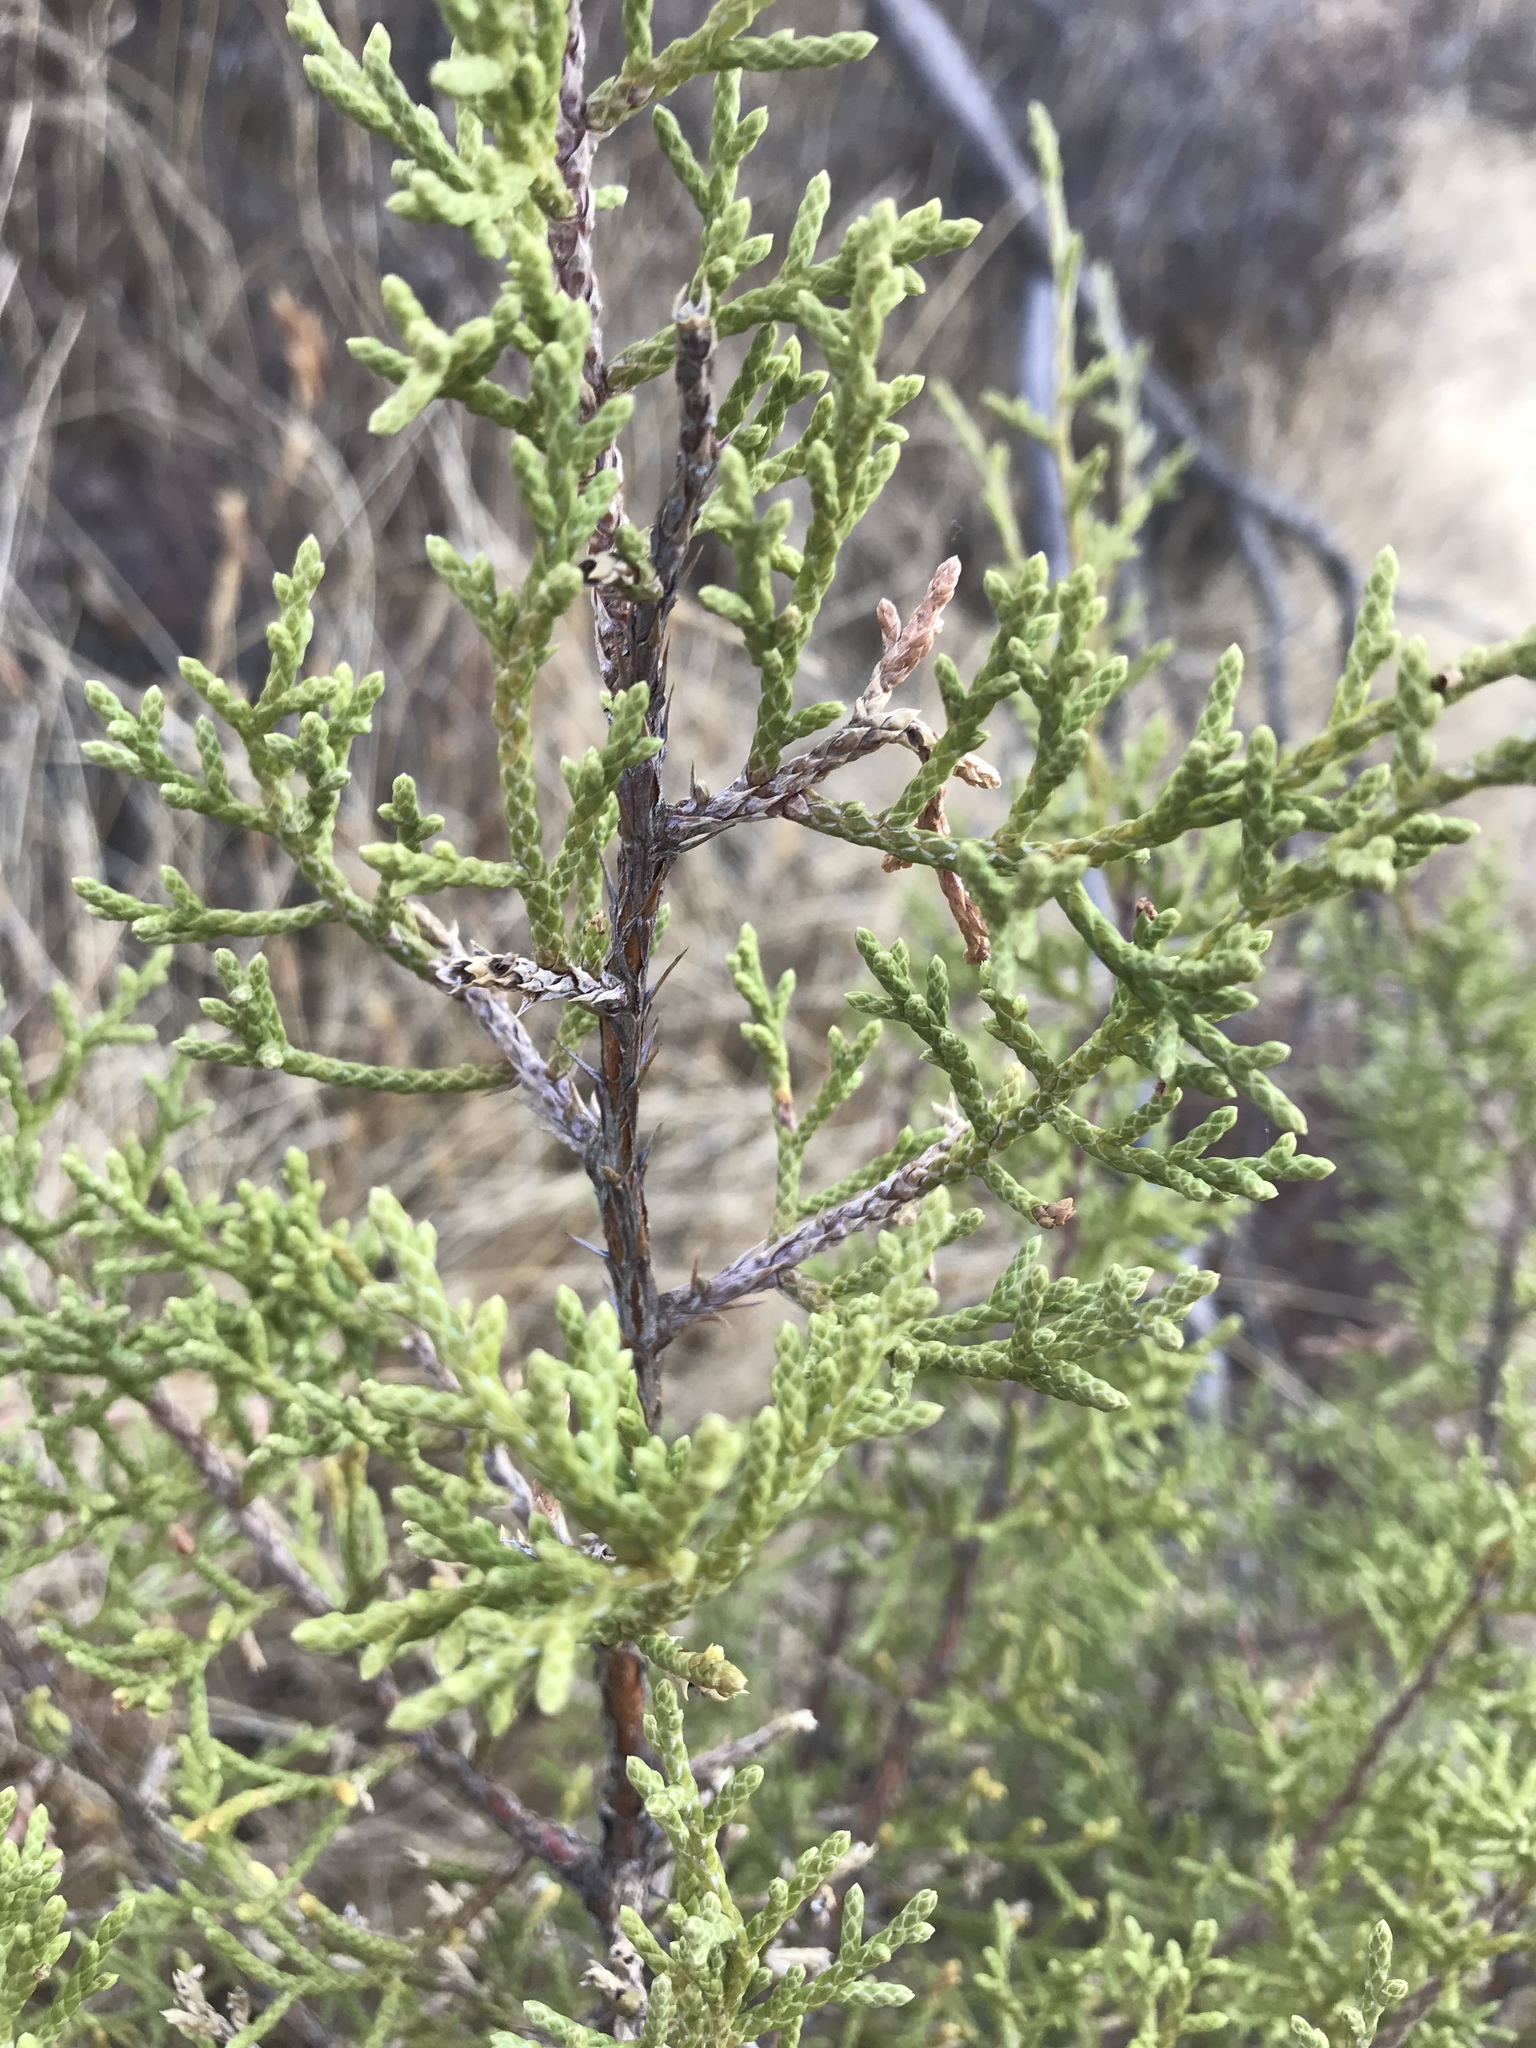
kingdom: Plantae
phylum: Tracheophyta
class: Pinopsida
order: Pinales
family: Cupressaceae
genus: Juniperus
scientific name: Juniperus californica
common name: California juniper
